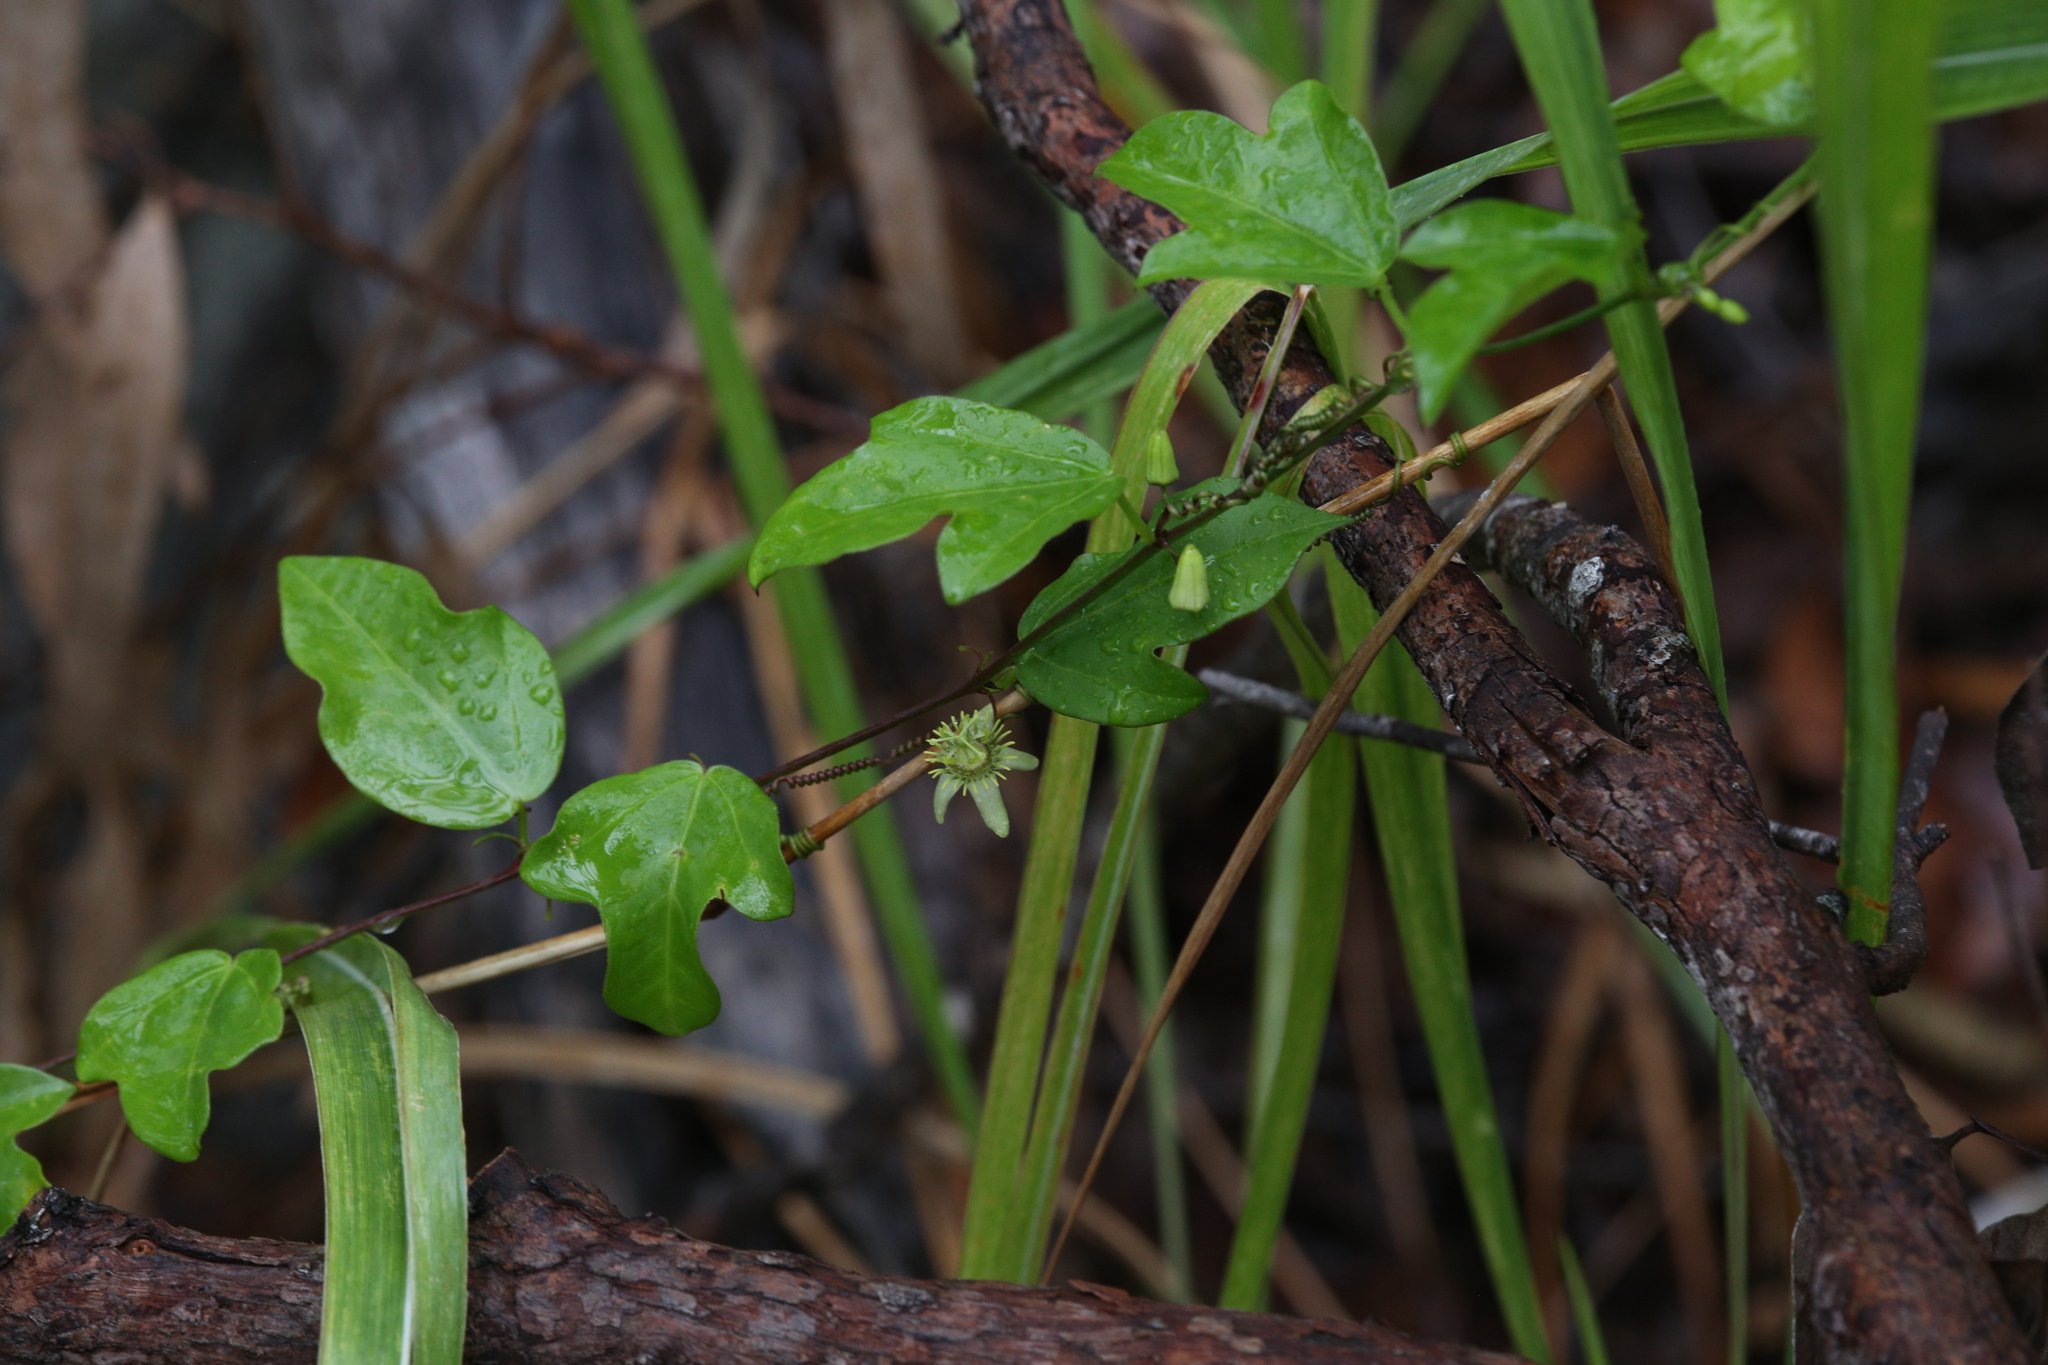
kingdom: Plantae
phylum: Tracheophyta
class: Magnoliopsida
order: Malpighiales
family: Passifloraceae
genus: Passiflora
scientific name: Passiflora pallida
